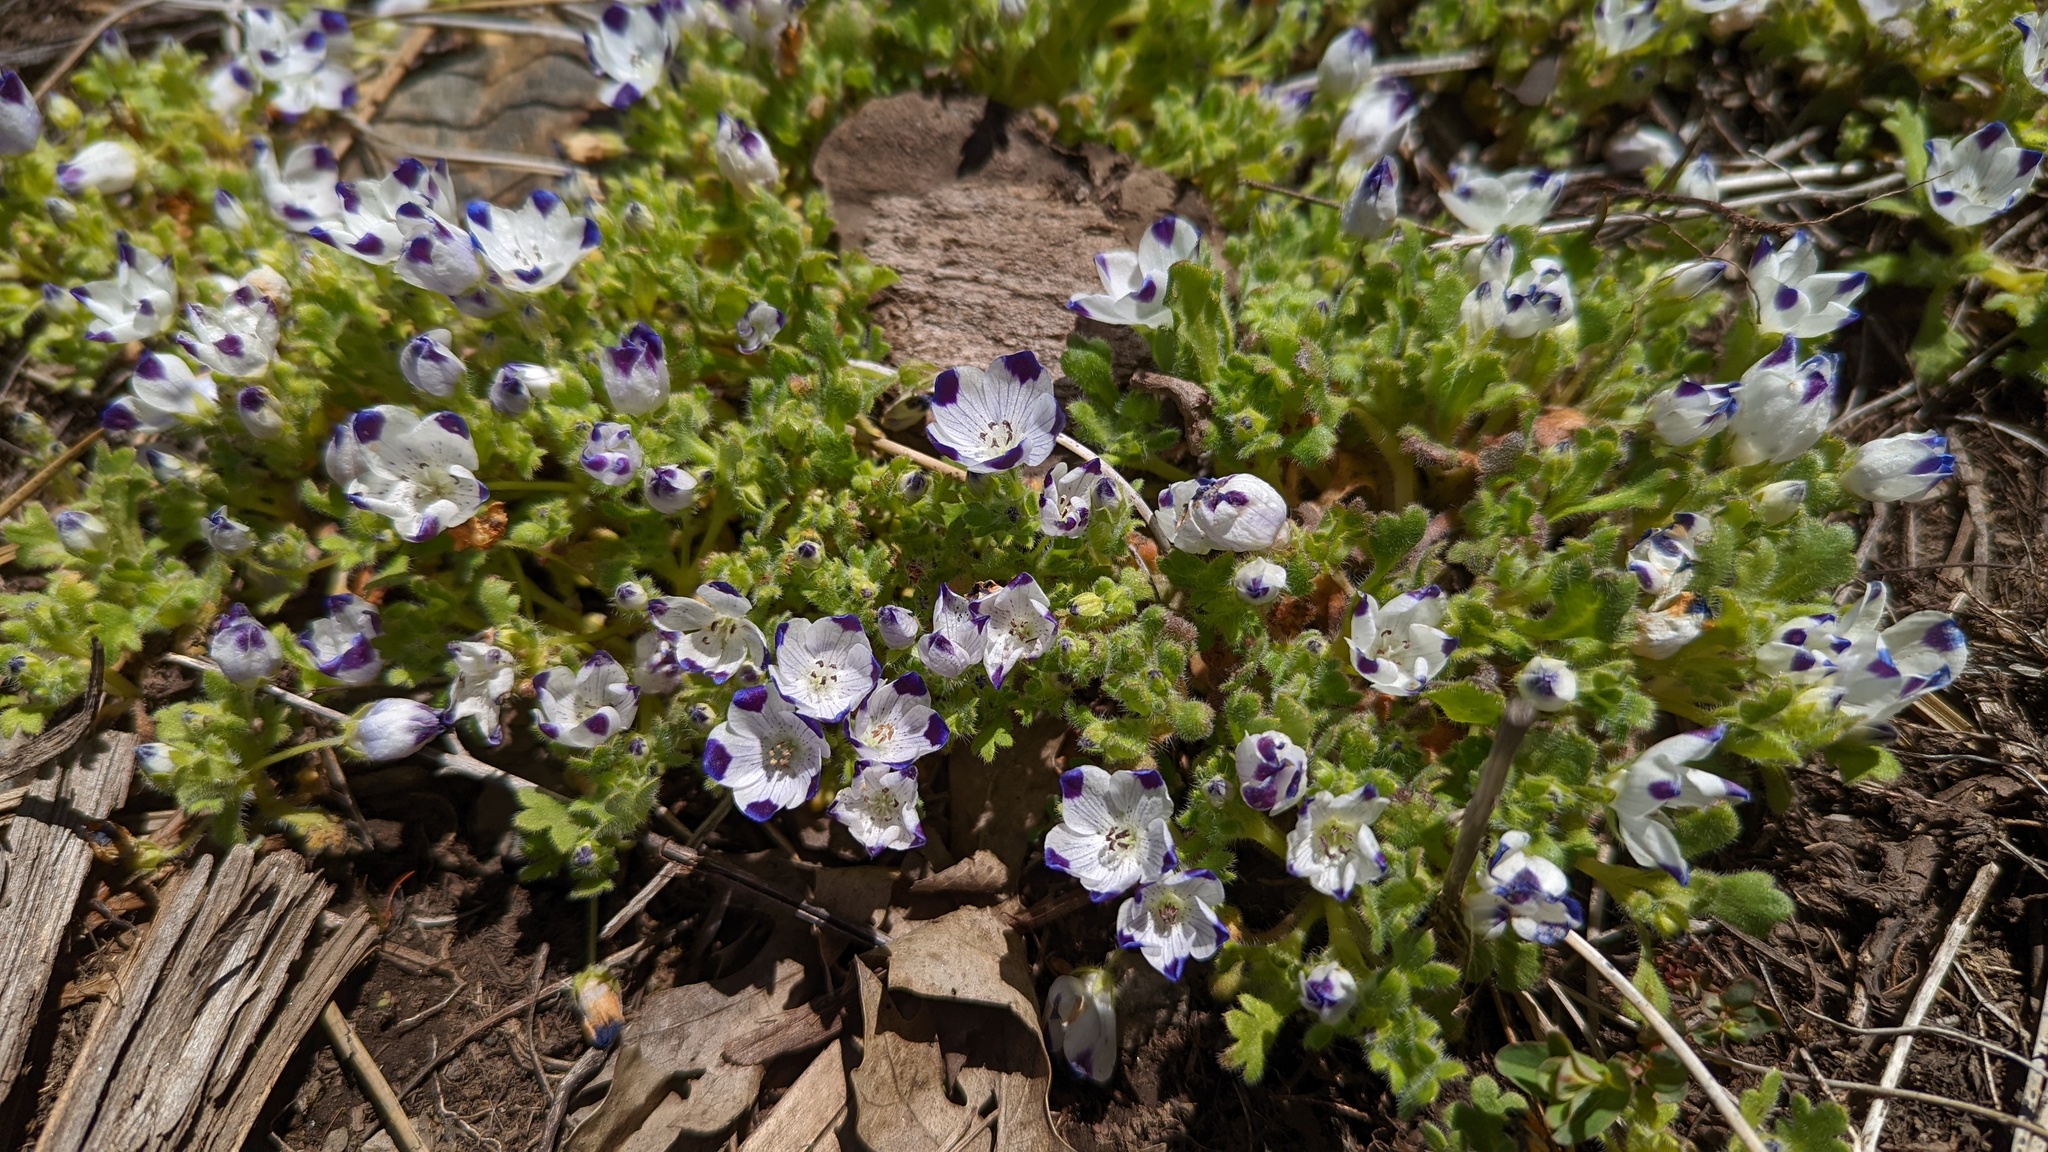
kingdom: Plantae
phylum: Tracheophyta
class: Magnoliopsida
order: Boraginales
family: Hydrophyllaceae
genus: Nemophila
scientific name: Nemophila maculata
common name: Fivespot
